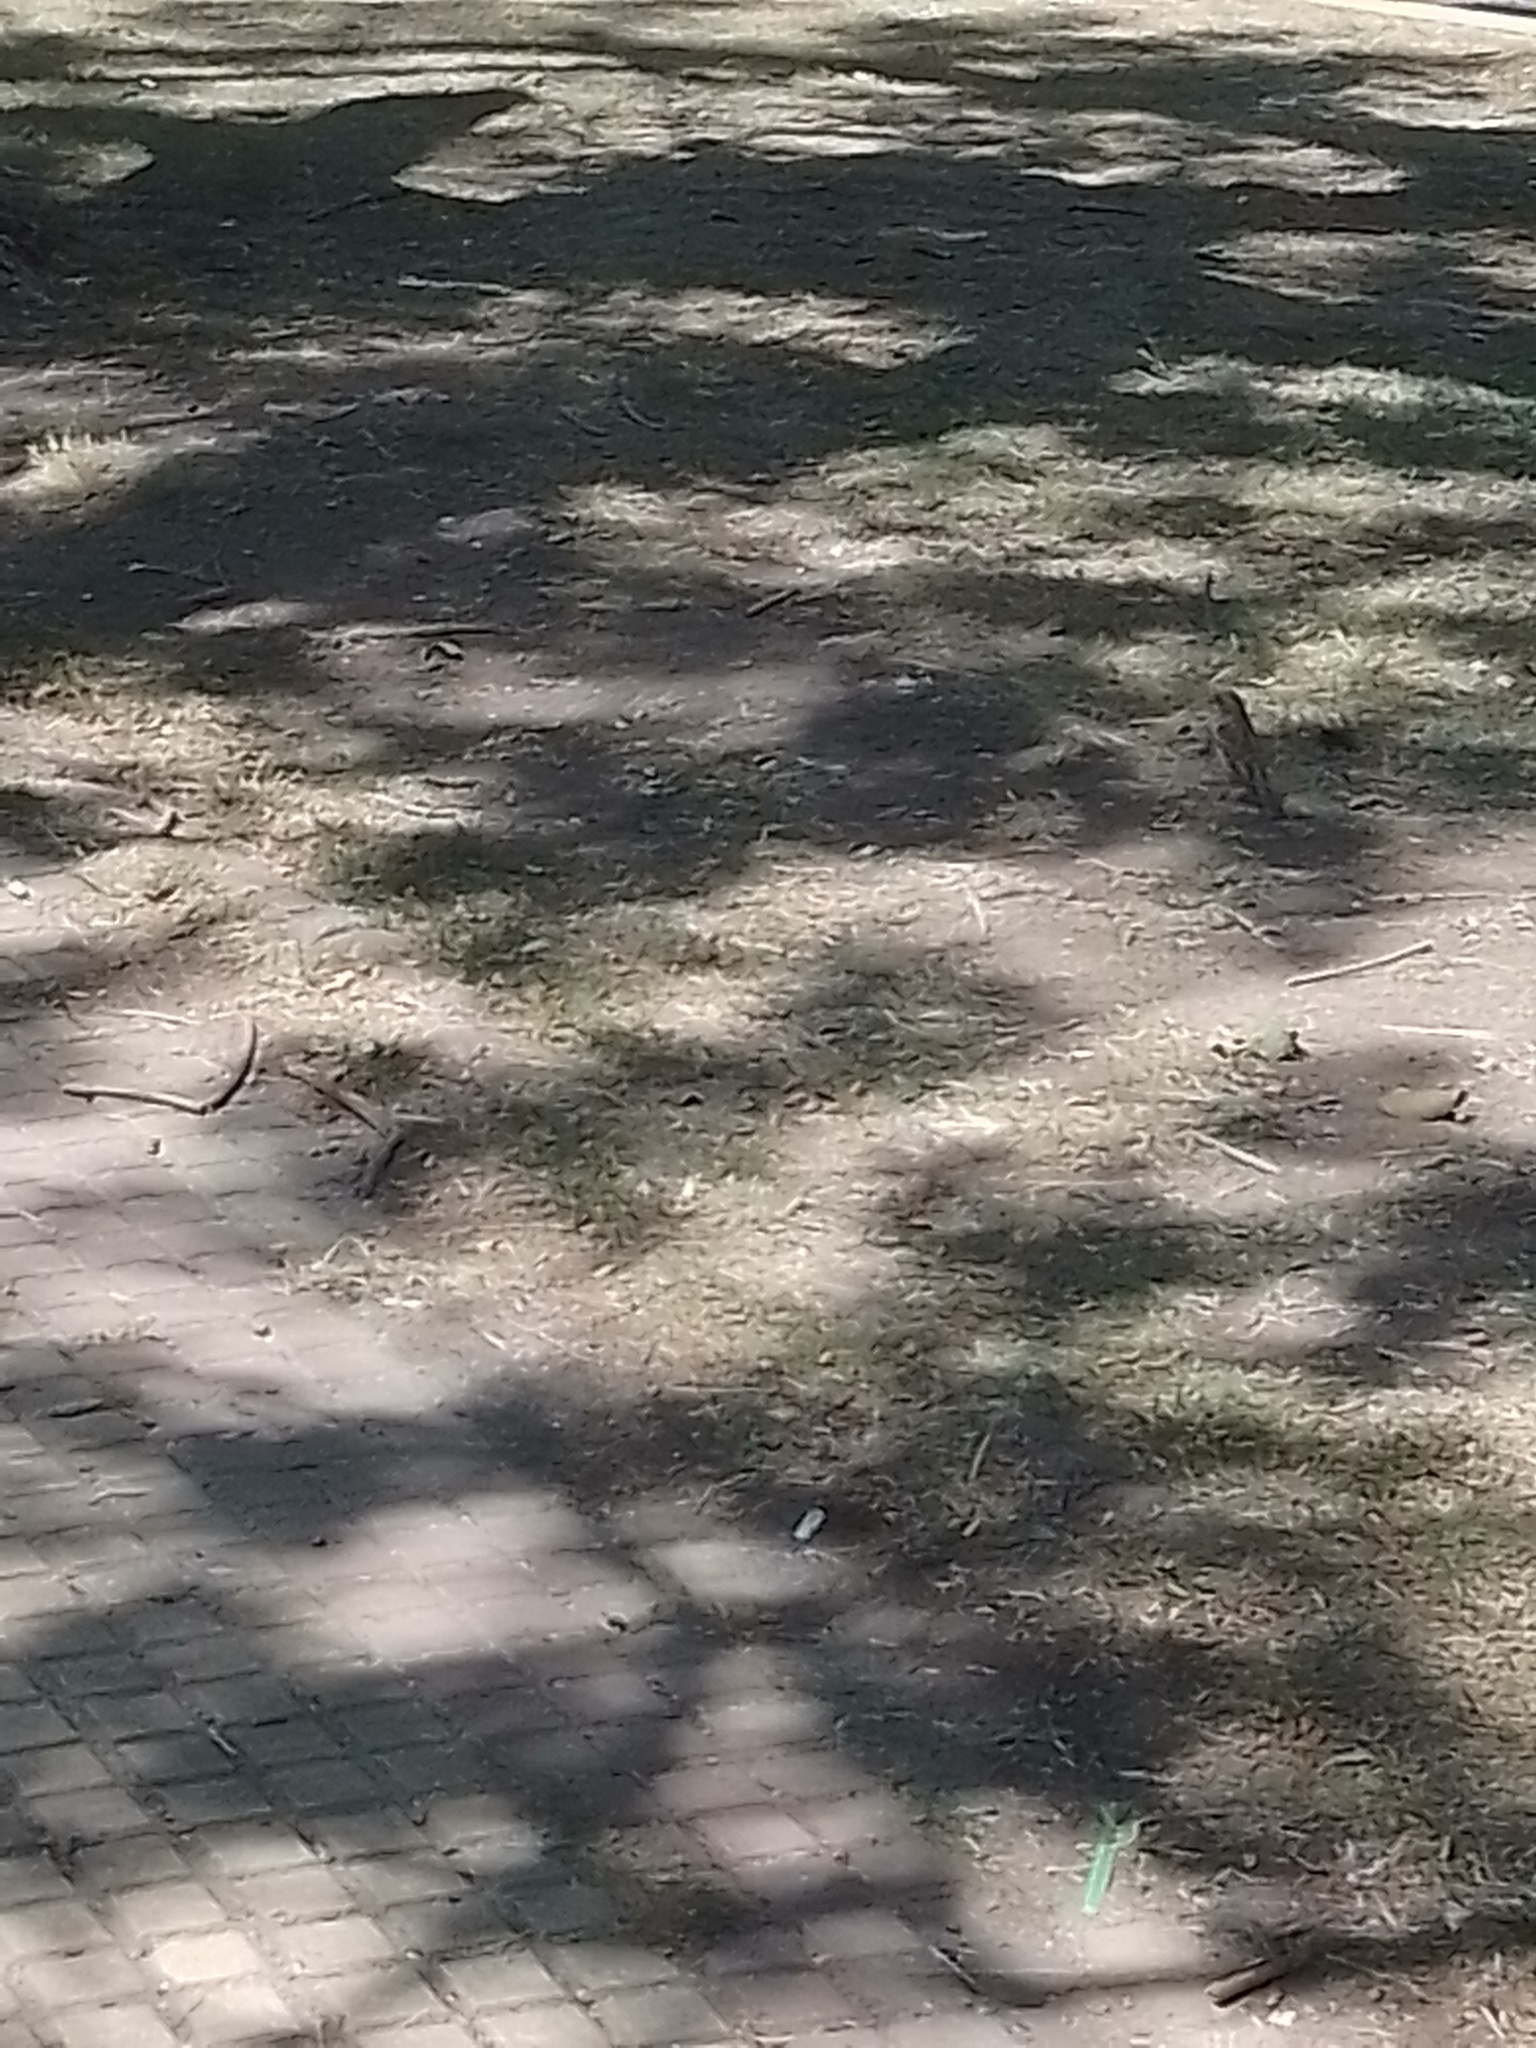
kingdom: Animalia
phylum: Chordata
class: Aves
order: Passeriformes
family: Passeridae
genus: Passer
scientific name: Passer domesticus
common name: House sparrow
